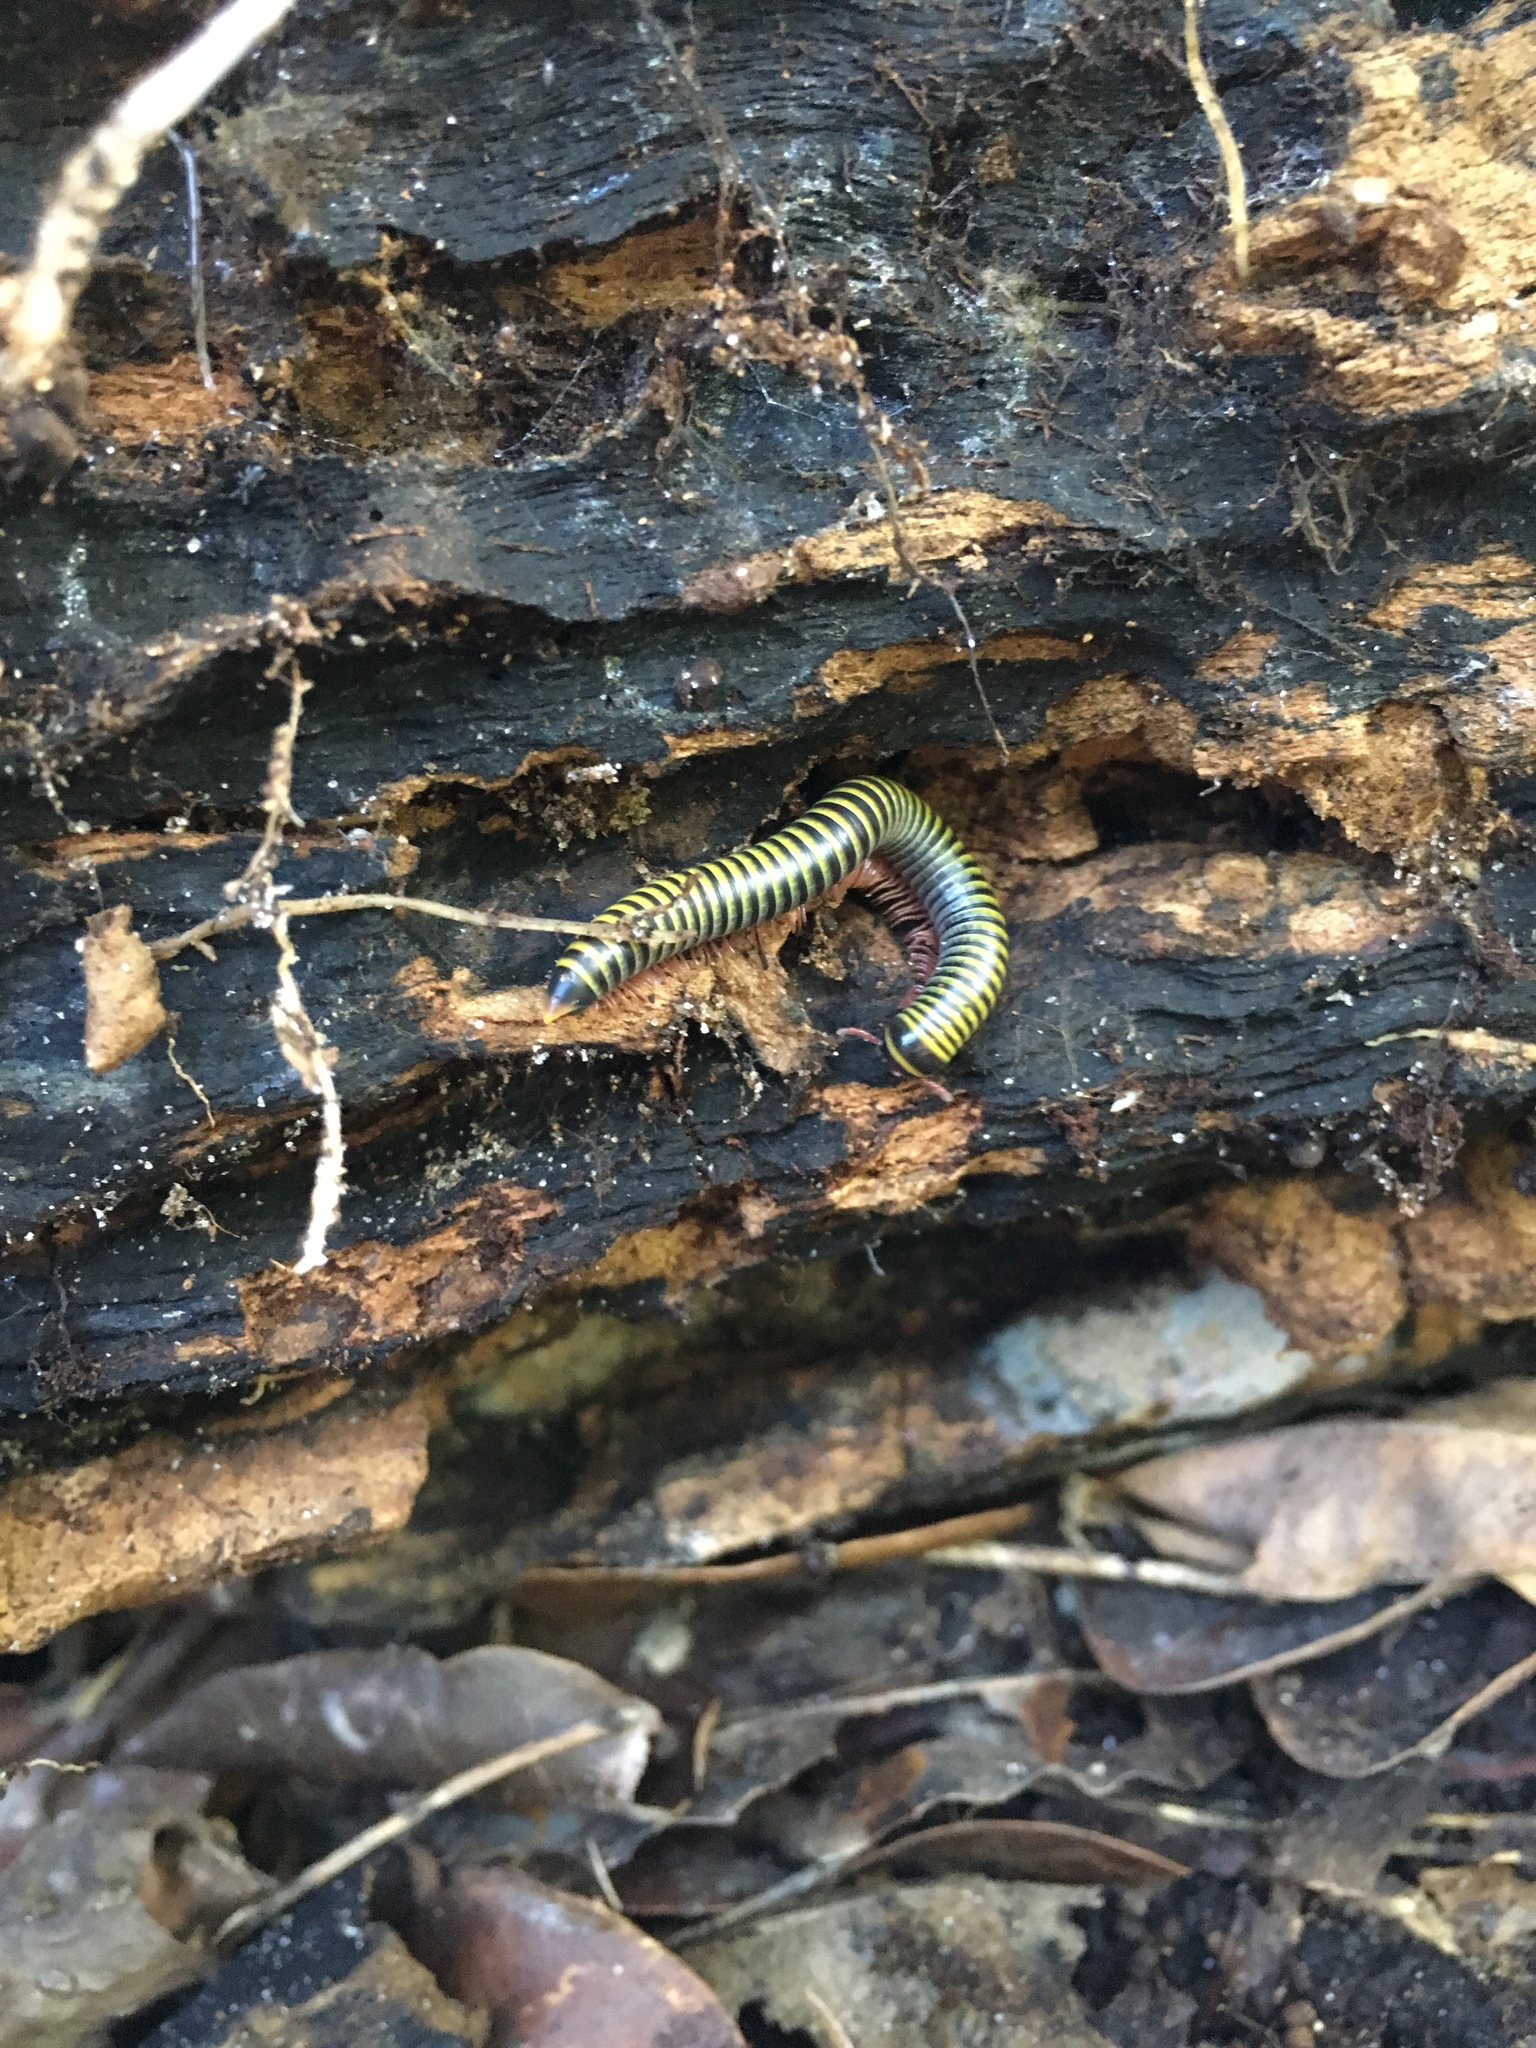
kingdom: Animalia
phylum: Arthropoda
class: Diplopoda
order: Spirobolida
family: Rhinocricidae
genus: Anadenobolus
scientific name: Anadenobolus monilicornis
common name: Caribbean millipede
